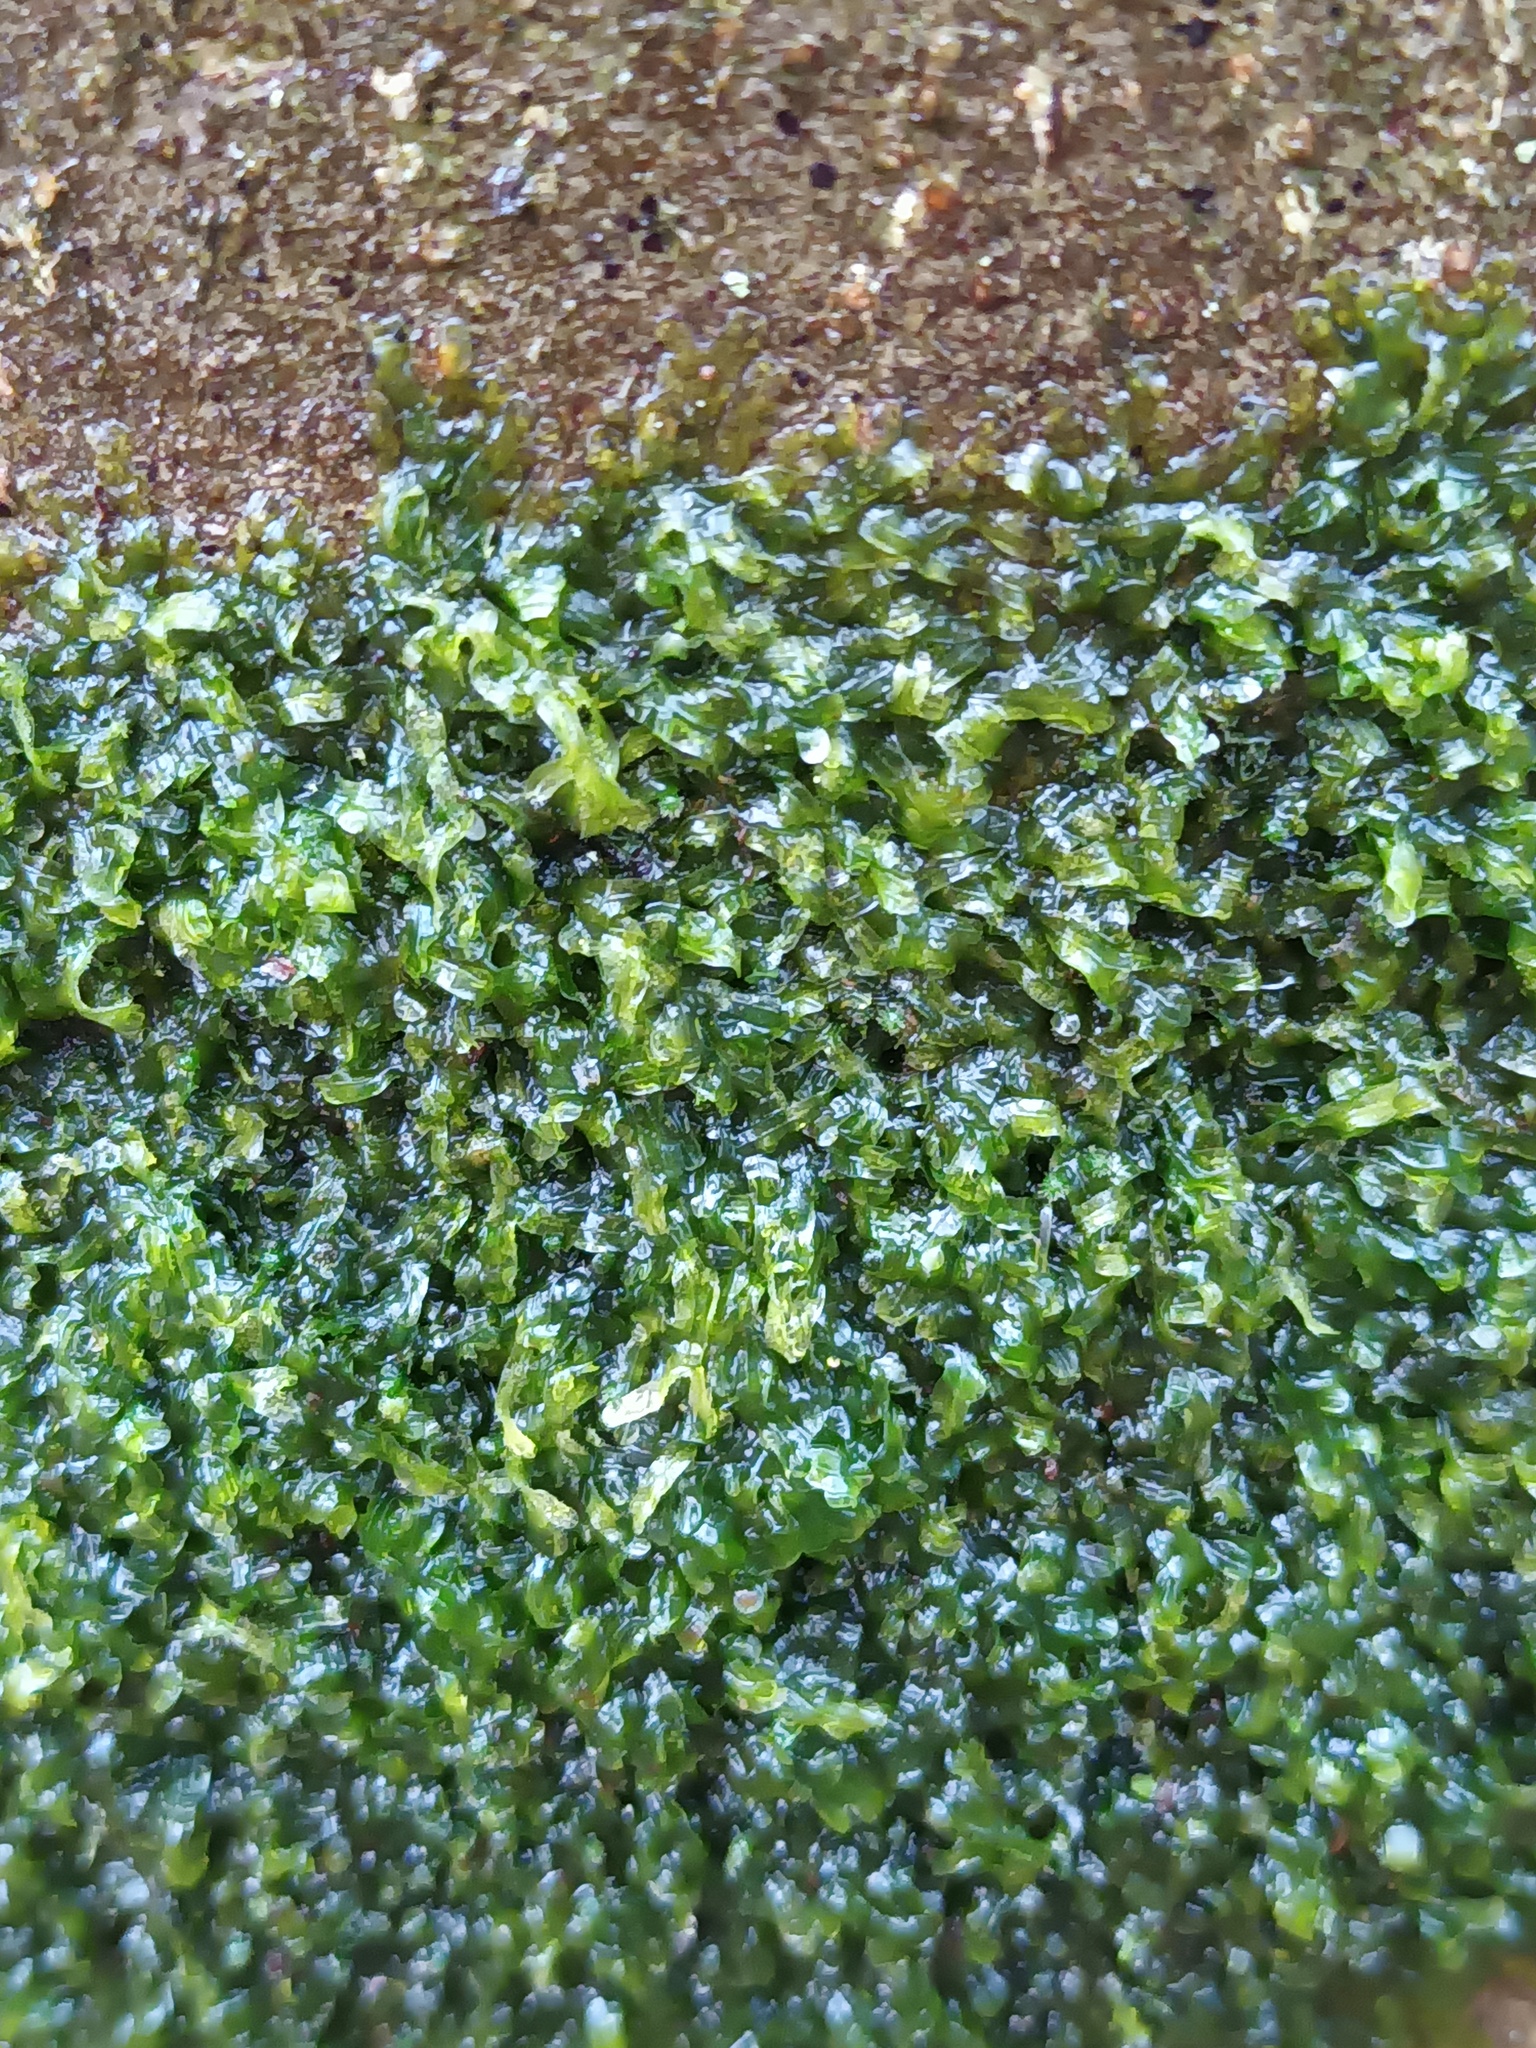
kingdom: Plantae
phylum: Marchantiophyta
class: Jungermanniopsida
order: Metzgeriales
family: Metzgeriaceae
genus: Metzgeria
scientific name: Metzgeria furcata
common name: Forked veilwort
